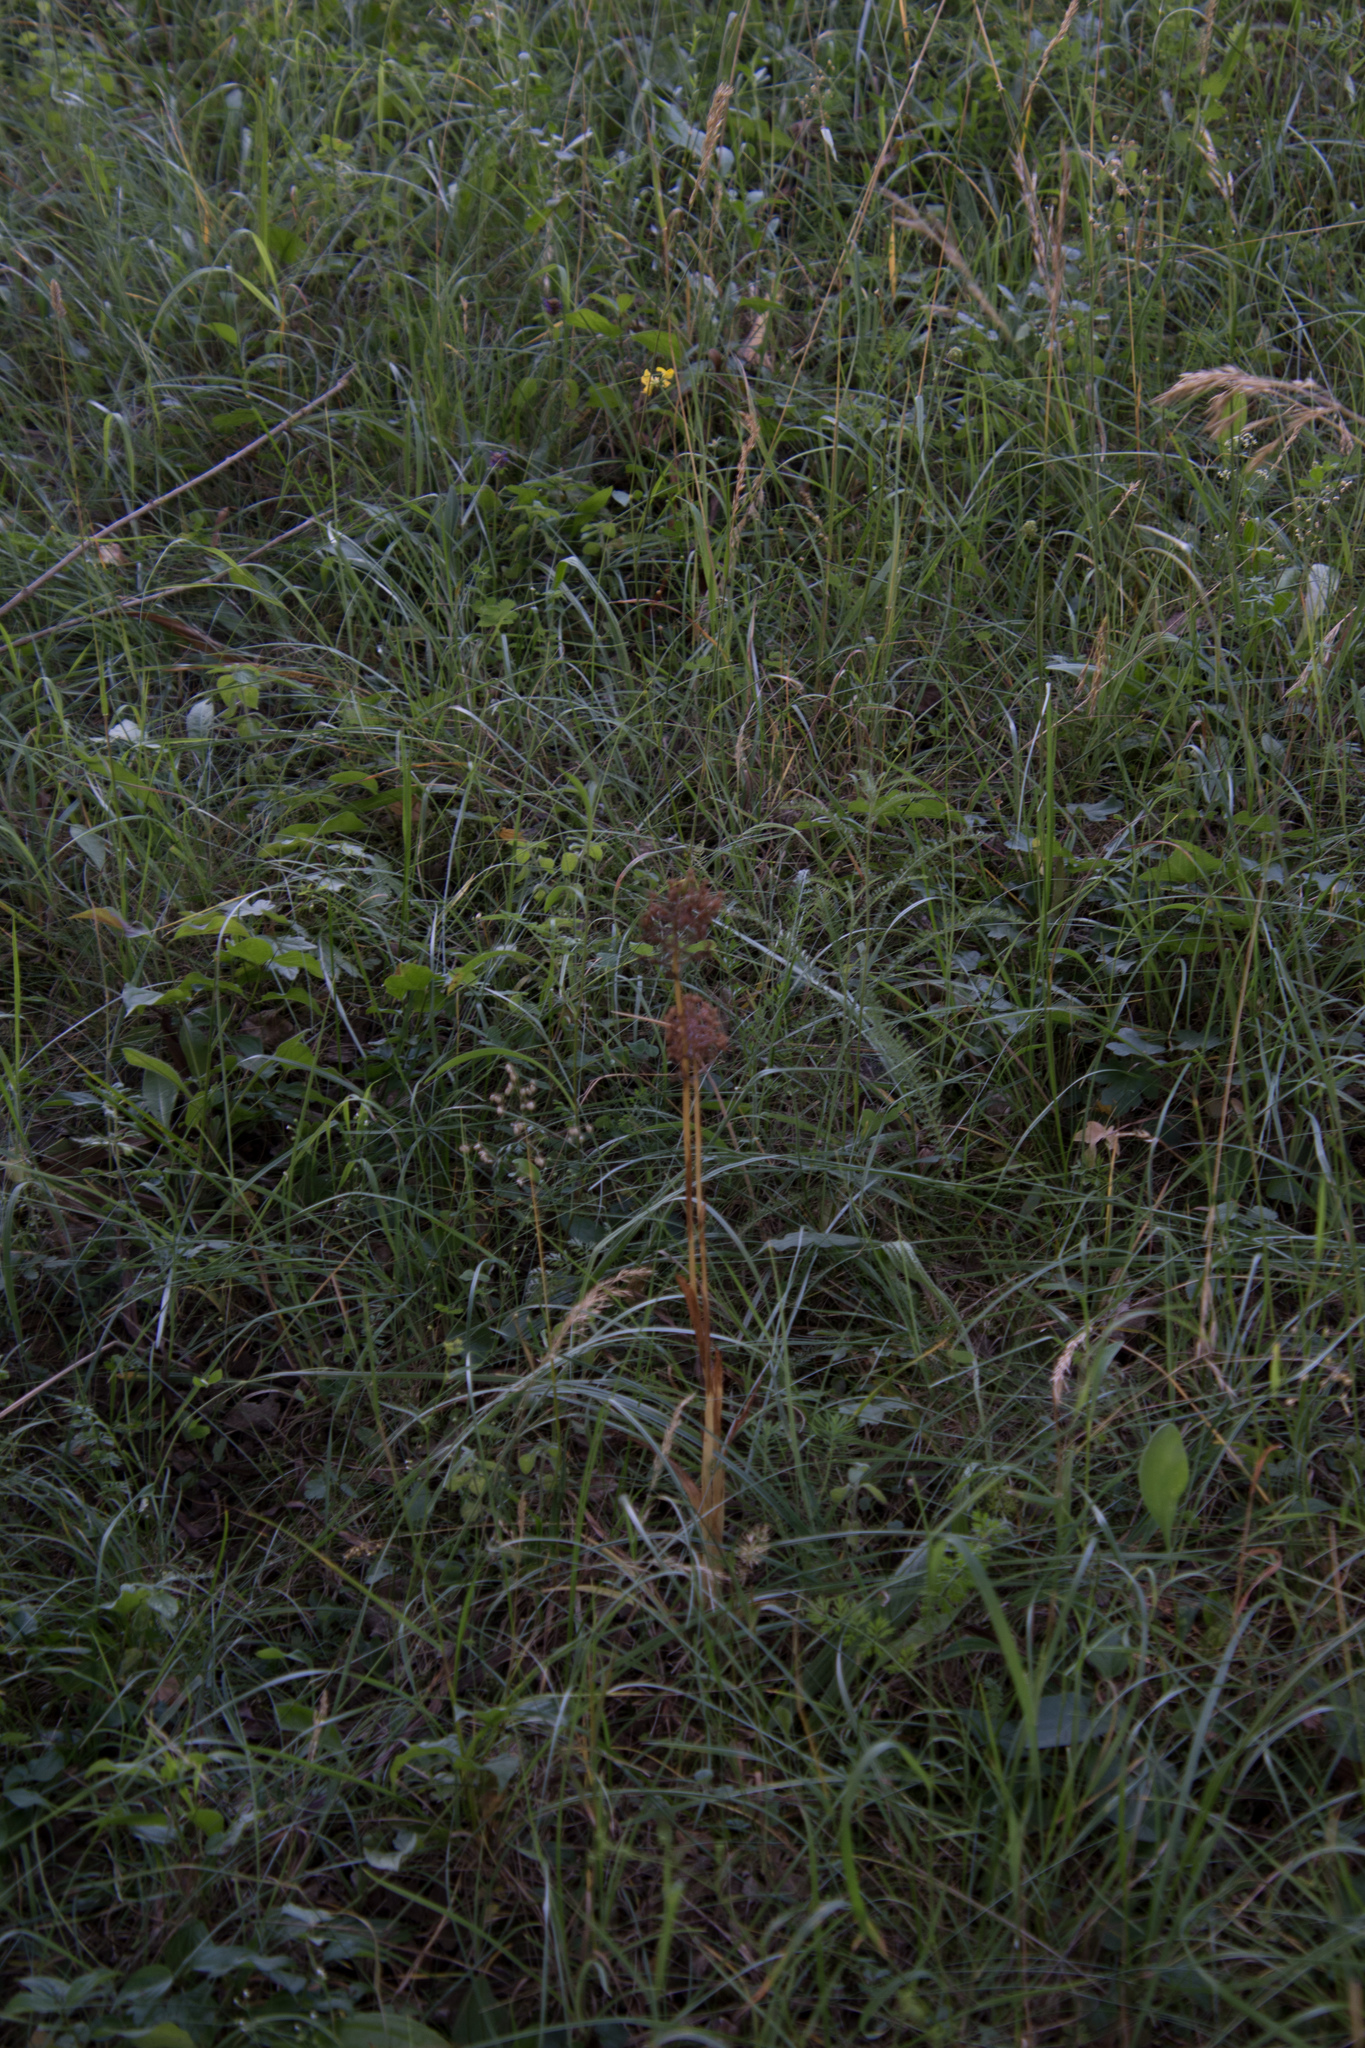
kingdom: Plantae
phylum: Tracheophyta
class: Liliopsida
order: Asparagales
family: Orchidaceae
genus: Anacamptis
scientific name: Anacamptis pyramidalis
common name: Pyramidal orchid
